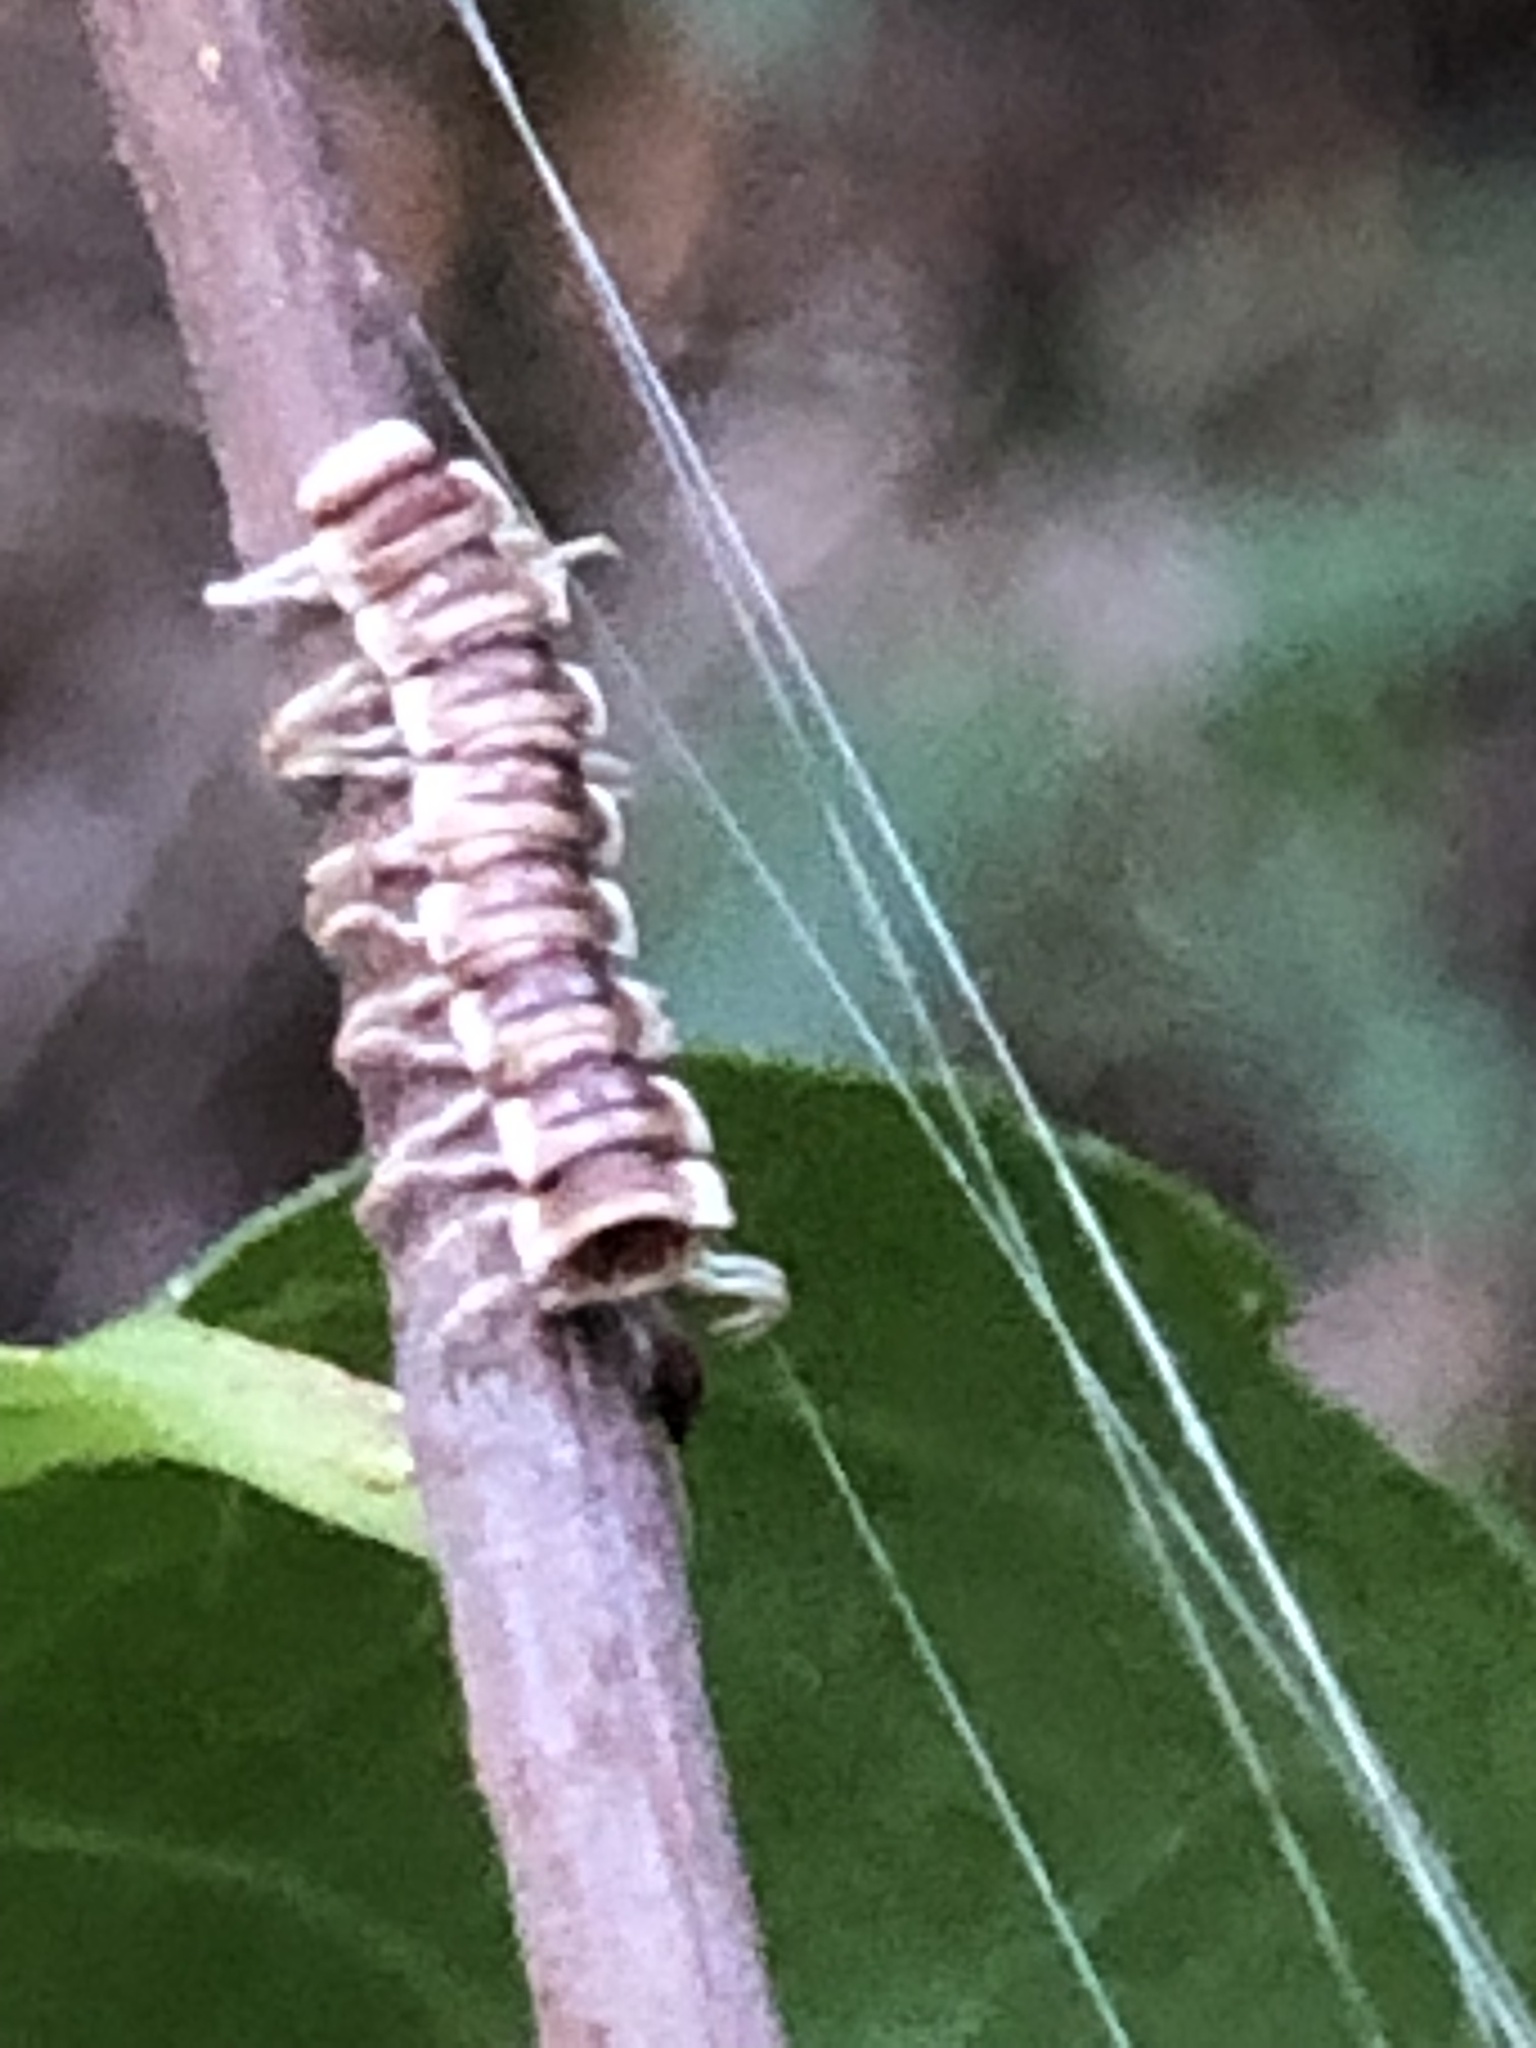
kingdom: Fungi
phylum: Entomophthoromycota
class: Entomophthoromycetes
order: Entomophthorales
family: Entomophthoraceae
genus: Arthrophaga
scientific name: Arthrophaga myriapodina
